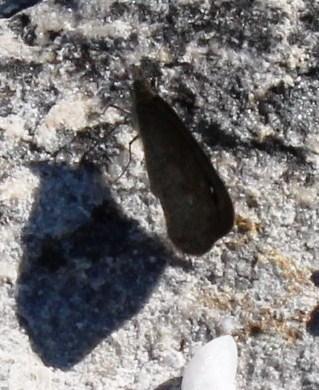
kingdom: Animalia
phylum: Arthropoda
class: Insecta
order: Lepidoptera
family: Nymphalidae
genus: Stygionympha
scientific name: Stygionympha vigilans
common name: Western hillside brown
